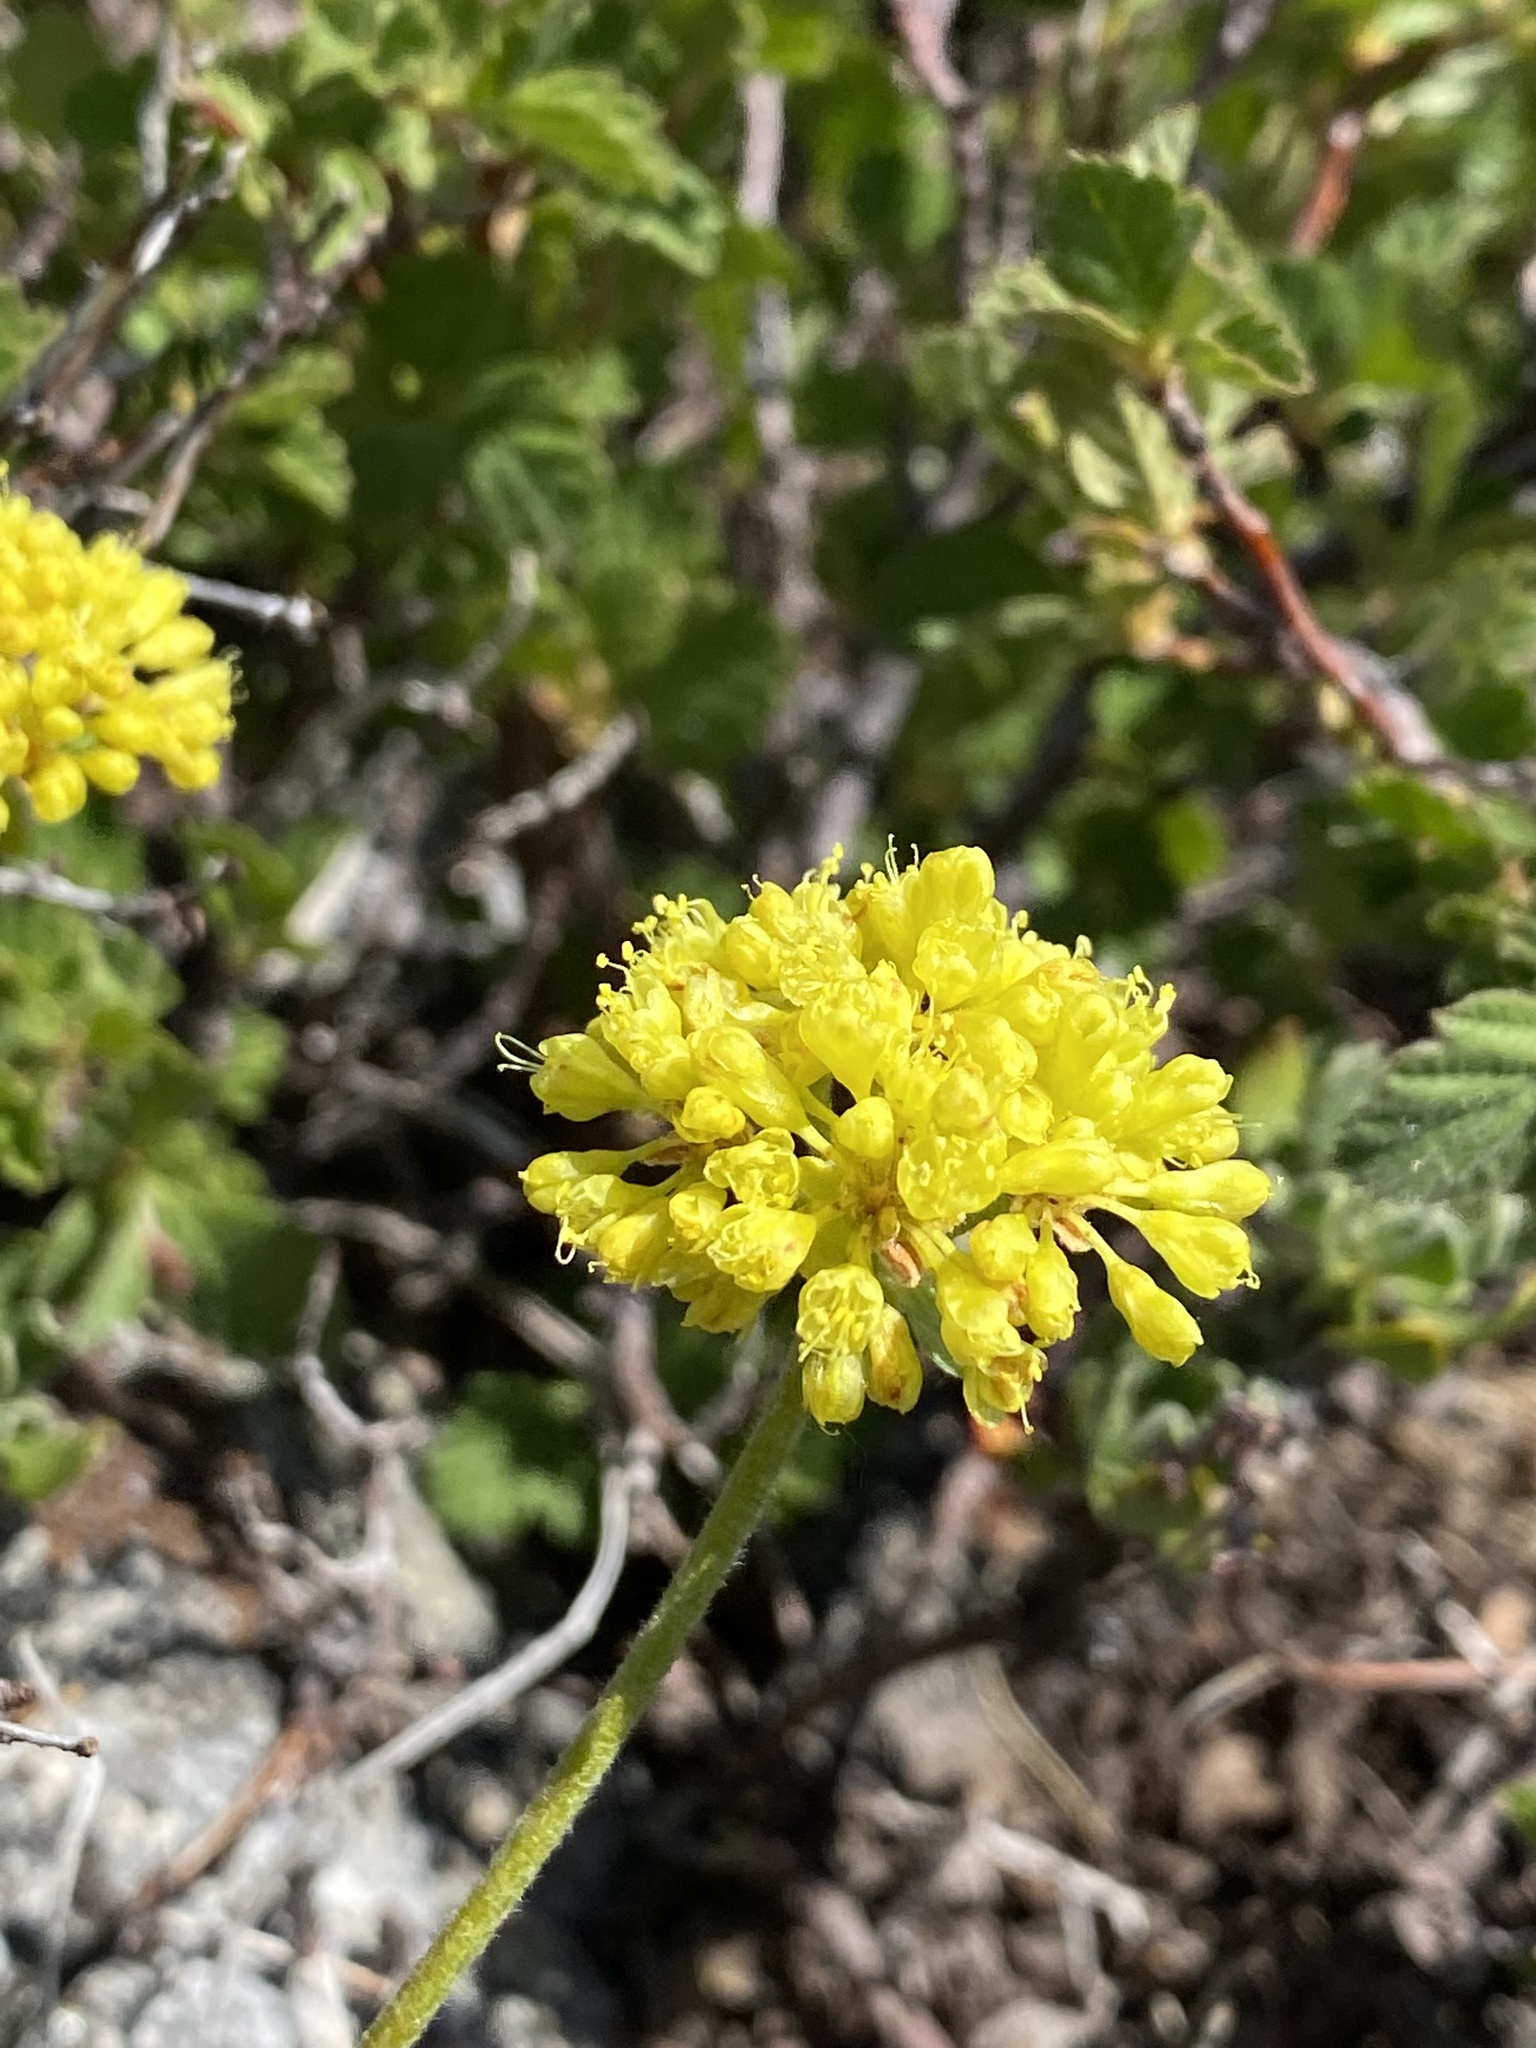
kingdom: Plantae
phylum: Tracheophyta
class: Magnoliopsida
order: Caryophyllales
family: Polygonaceae
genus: Eriogonum
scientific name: Eriogonum umbellatum
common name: Sulfur-buckwheat
